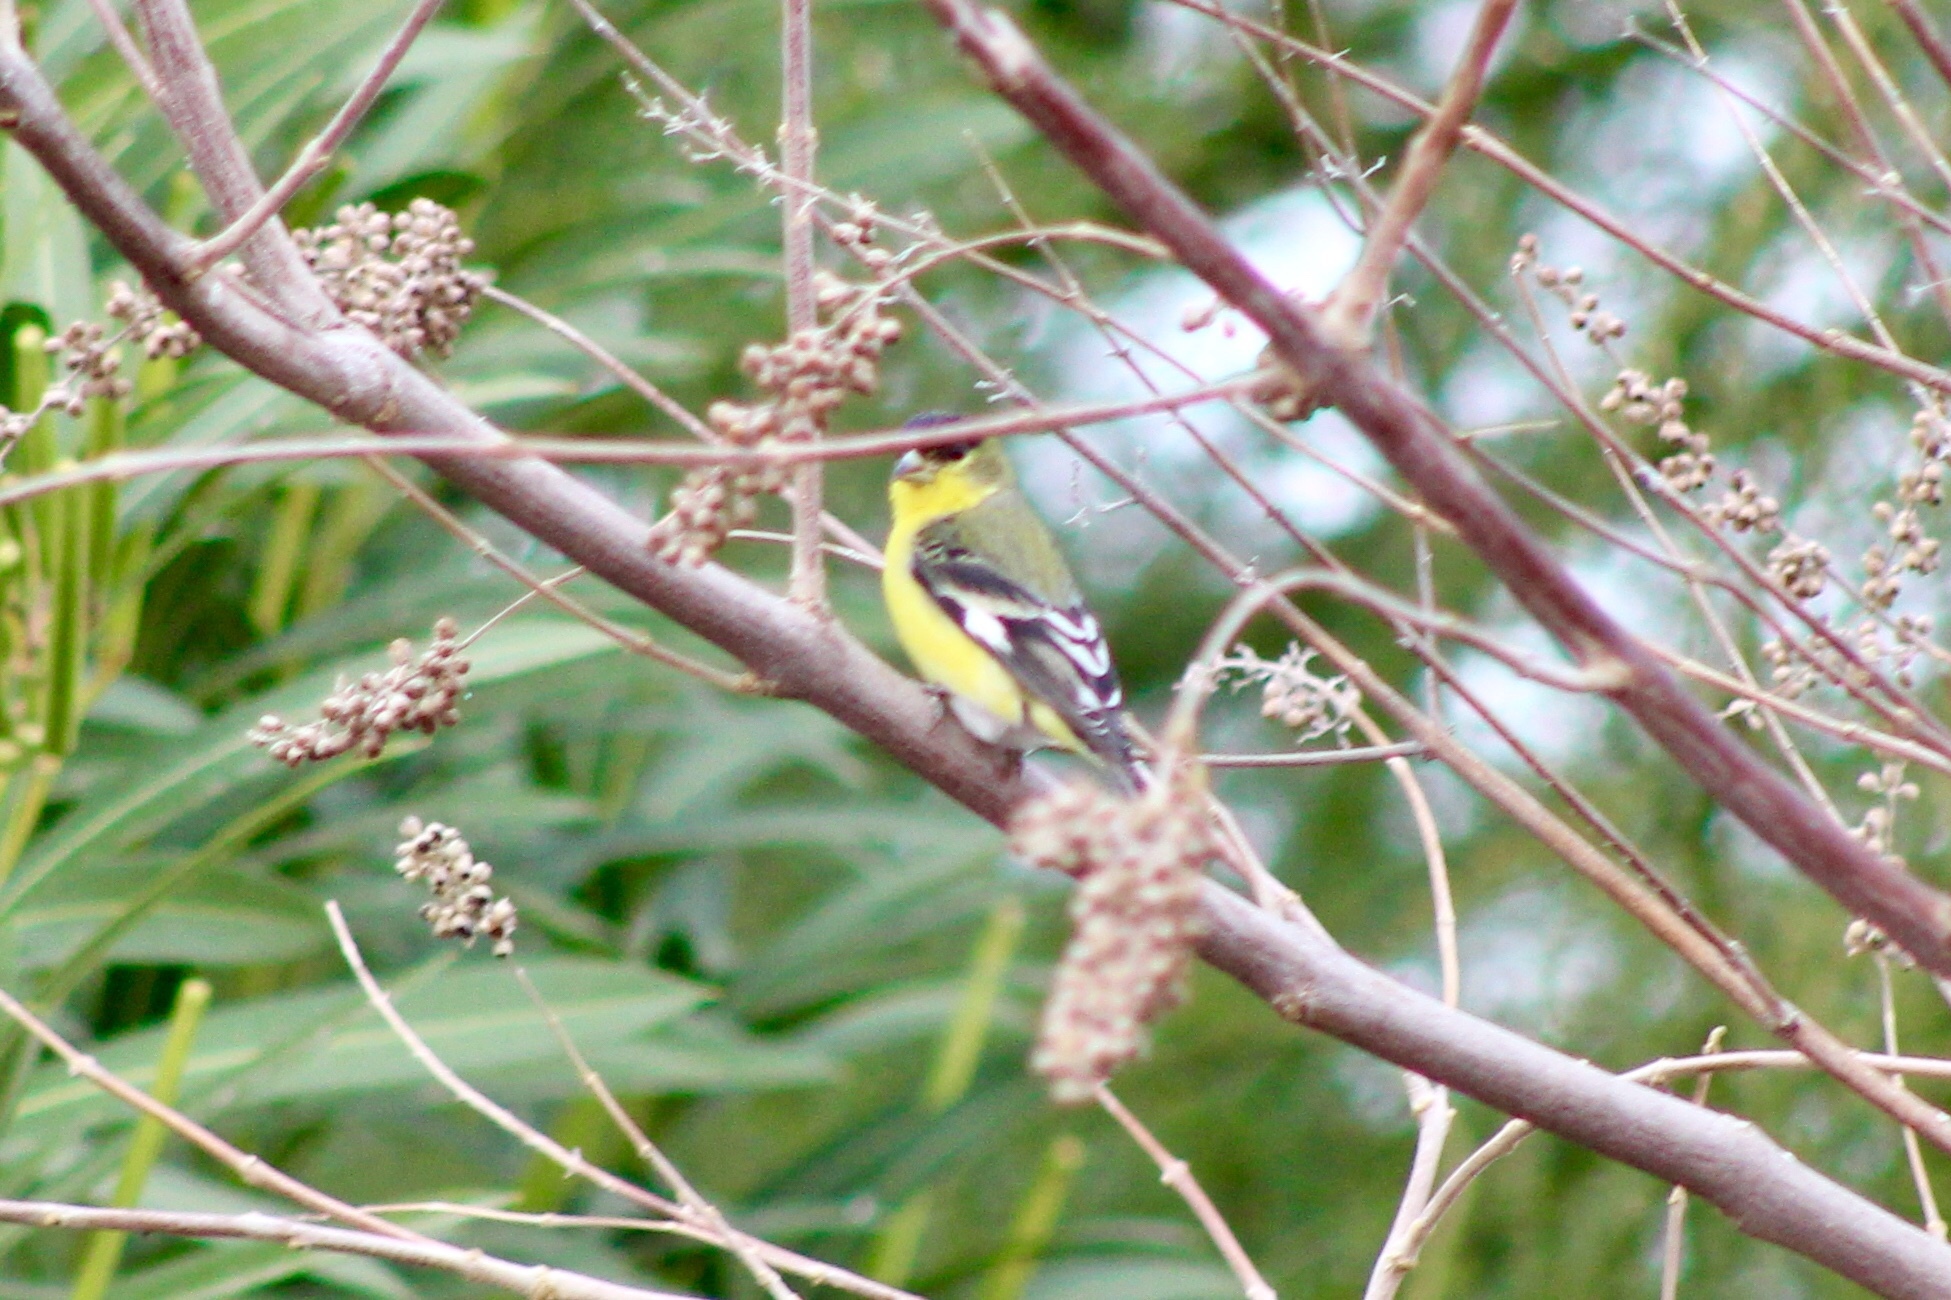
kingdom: Animalia
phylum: Chordata
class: Aves
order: Passeriformes
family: Fringillidae
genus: Spinus
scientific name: Spinus psaltria
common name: Lesser goldfinch
